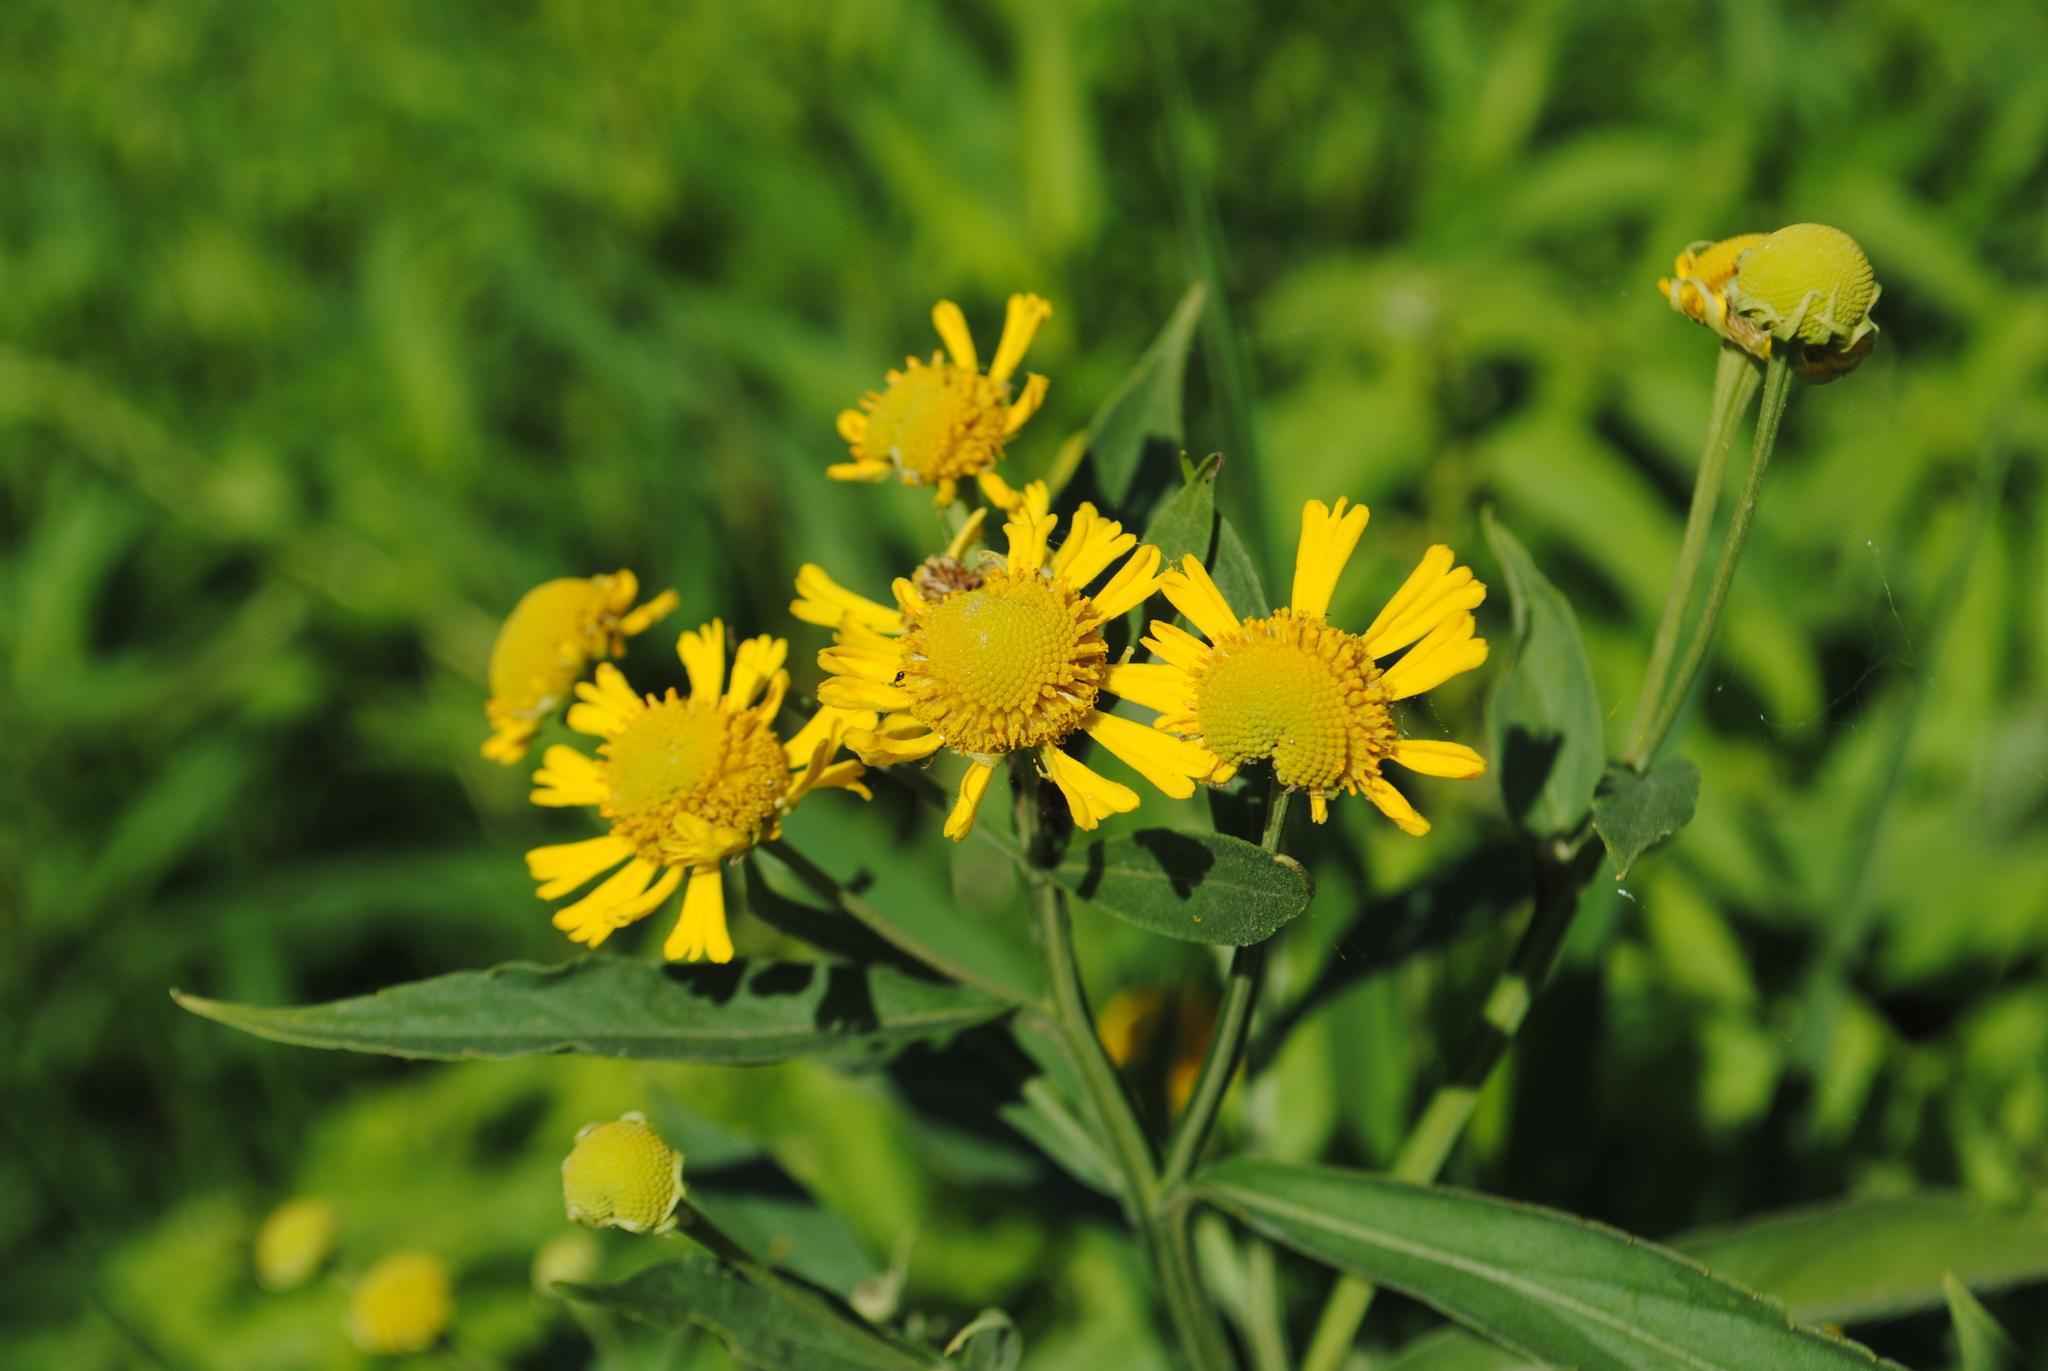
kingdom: Plantae
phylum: Tracheophyta
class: Magnoliopsida
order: Asterales
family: Asteraceae
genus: Helenium
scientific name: Helenium autumnale
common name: Sneezeweed
